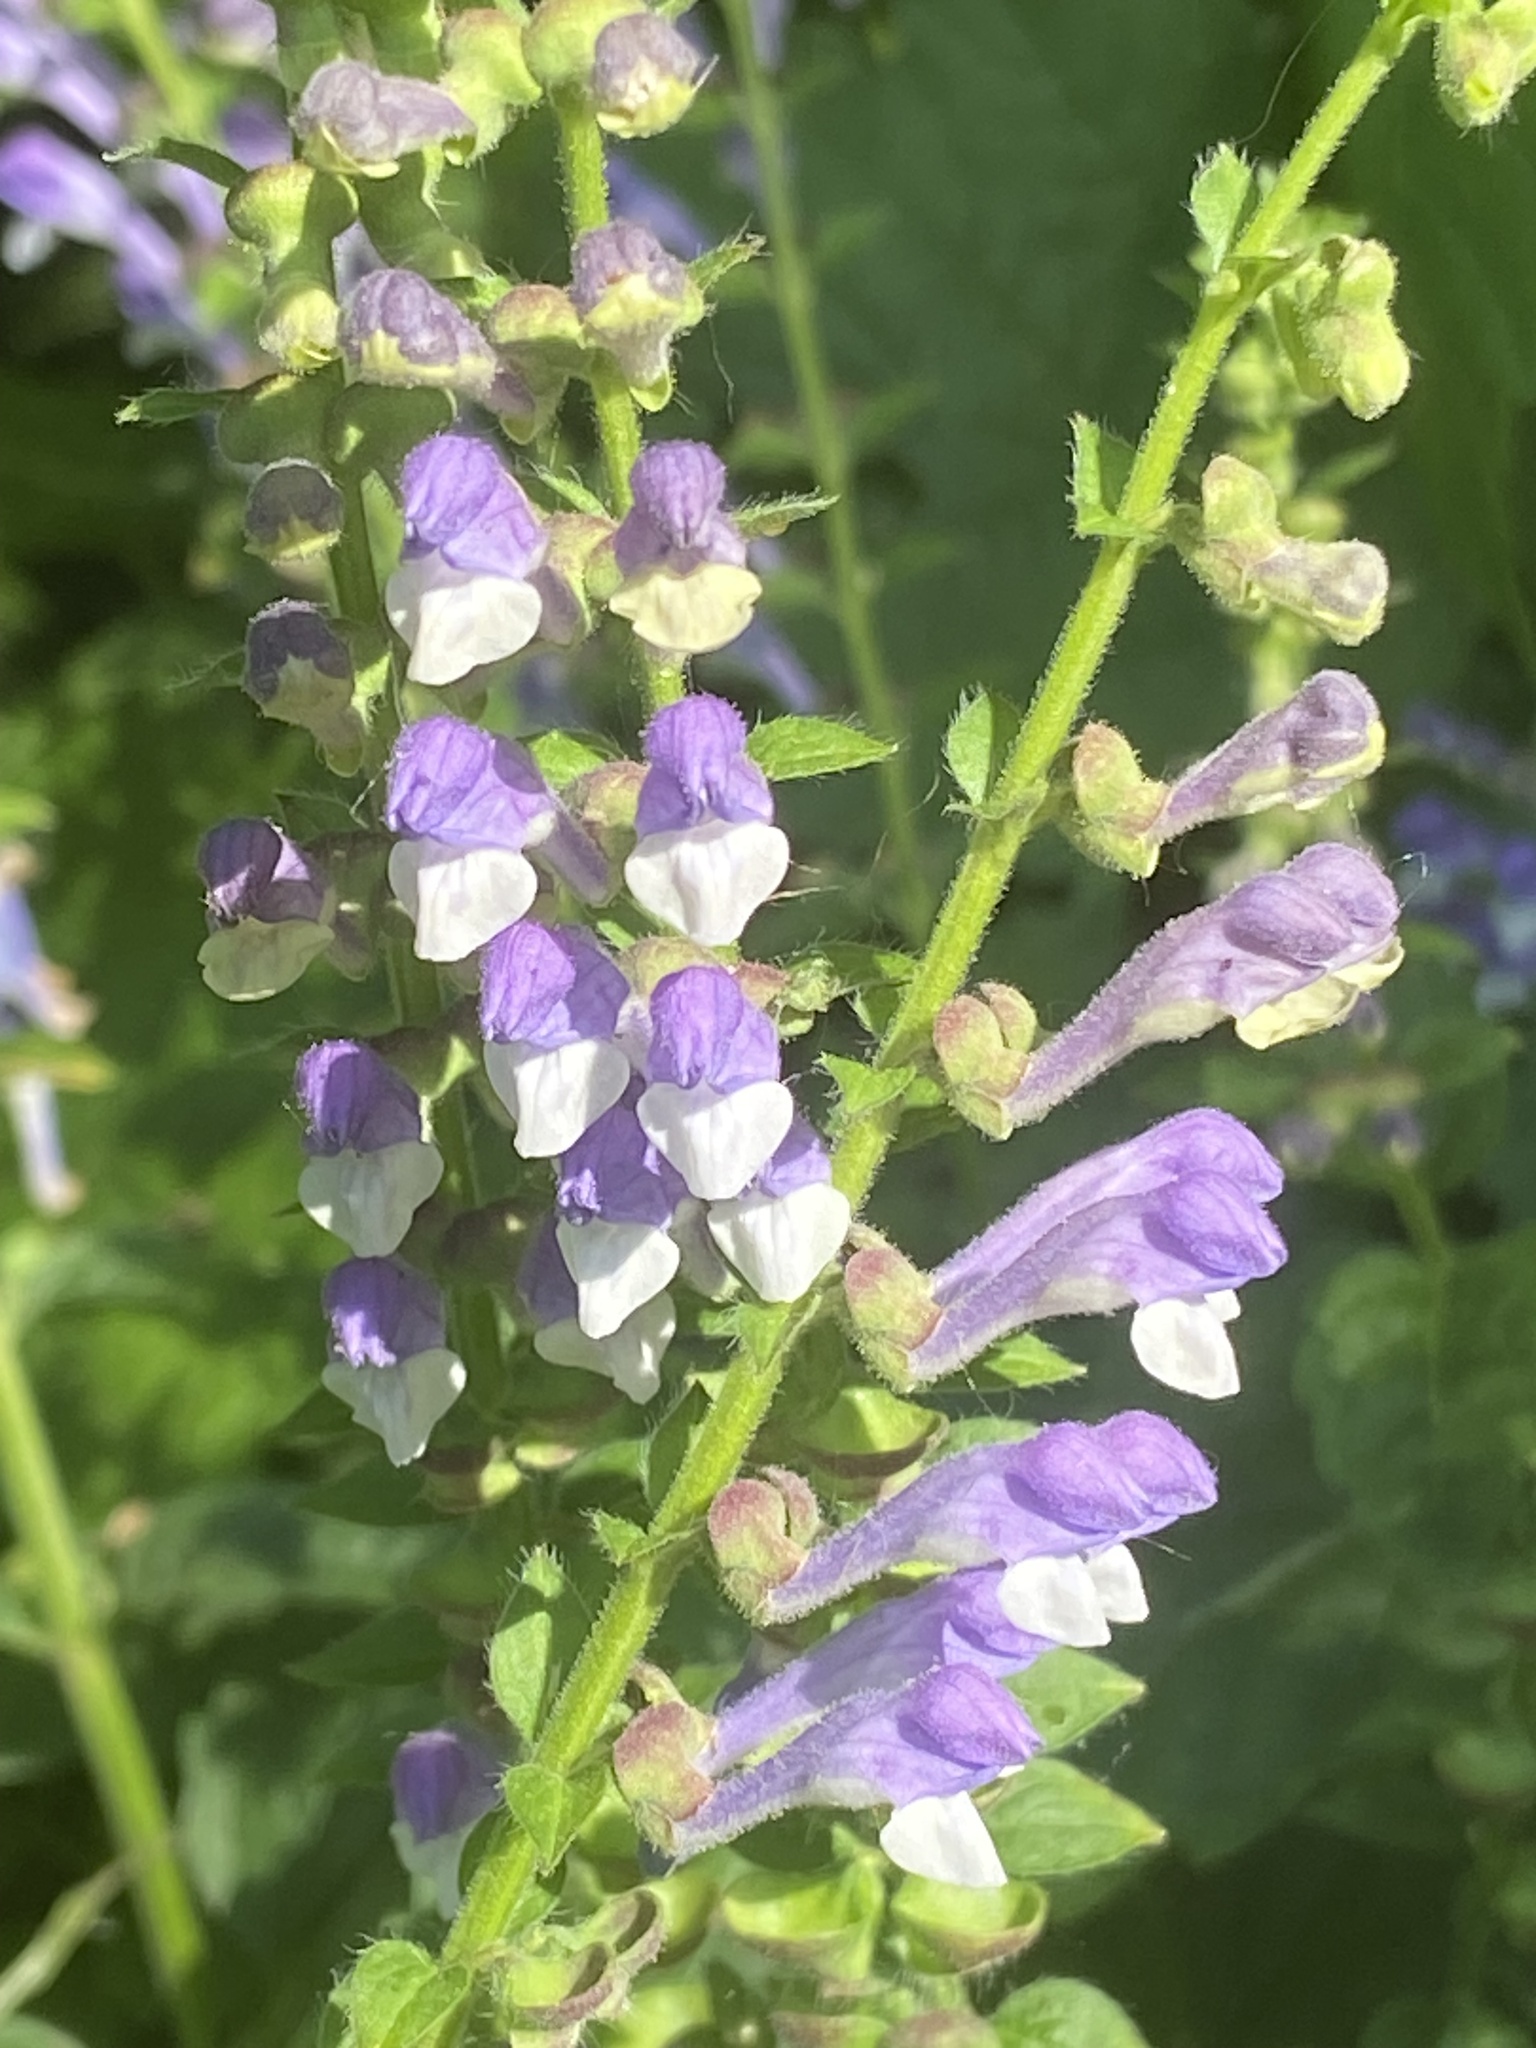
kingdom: Plantae
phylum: Tracheophyta
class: Magnoliopsida
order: Lamiales
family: Lamiaceae
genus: Scutellaria
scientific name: Scutellaria altissima
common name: Somerset skullcap
